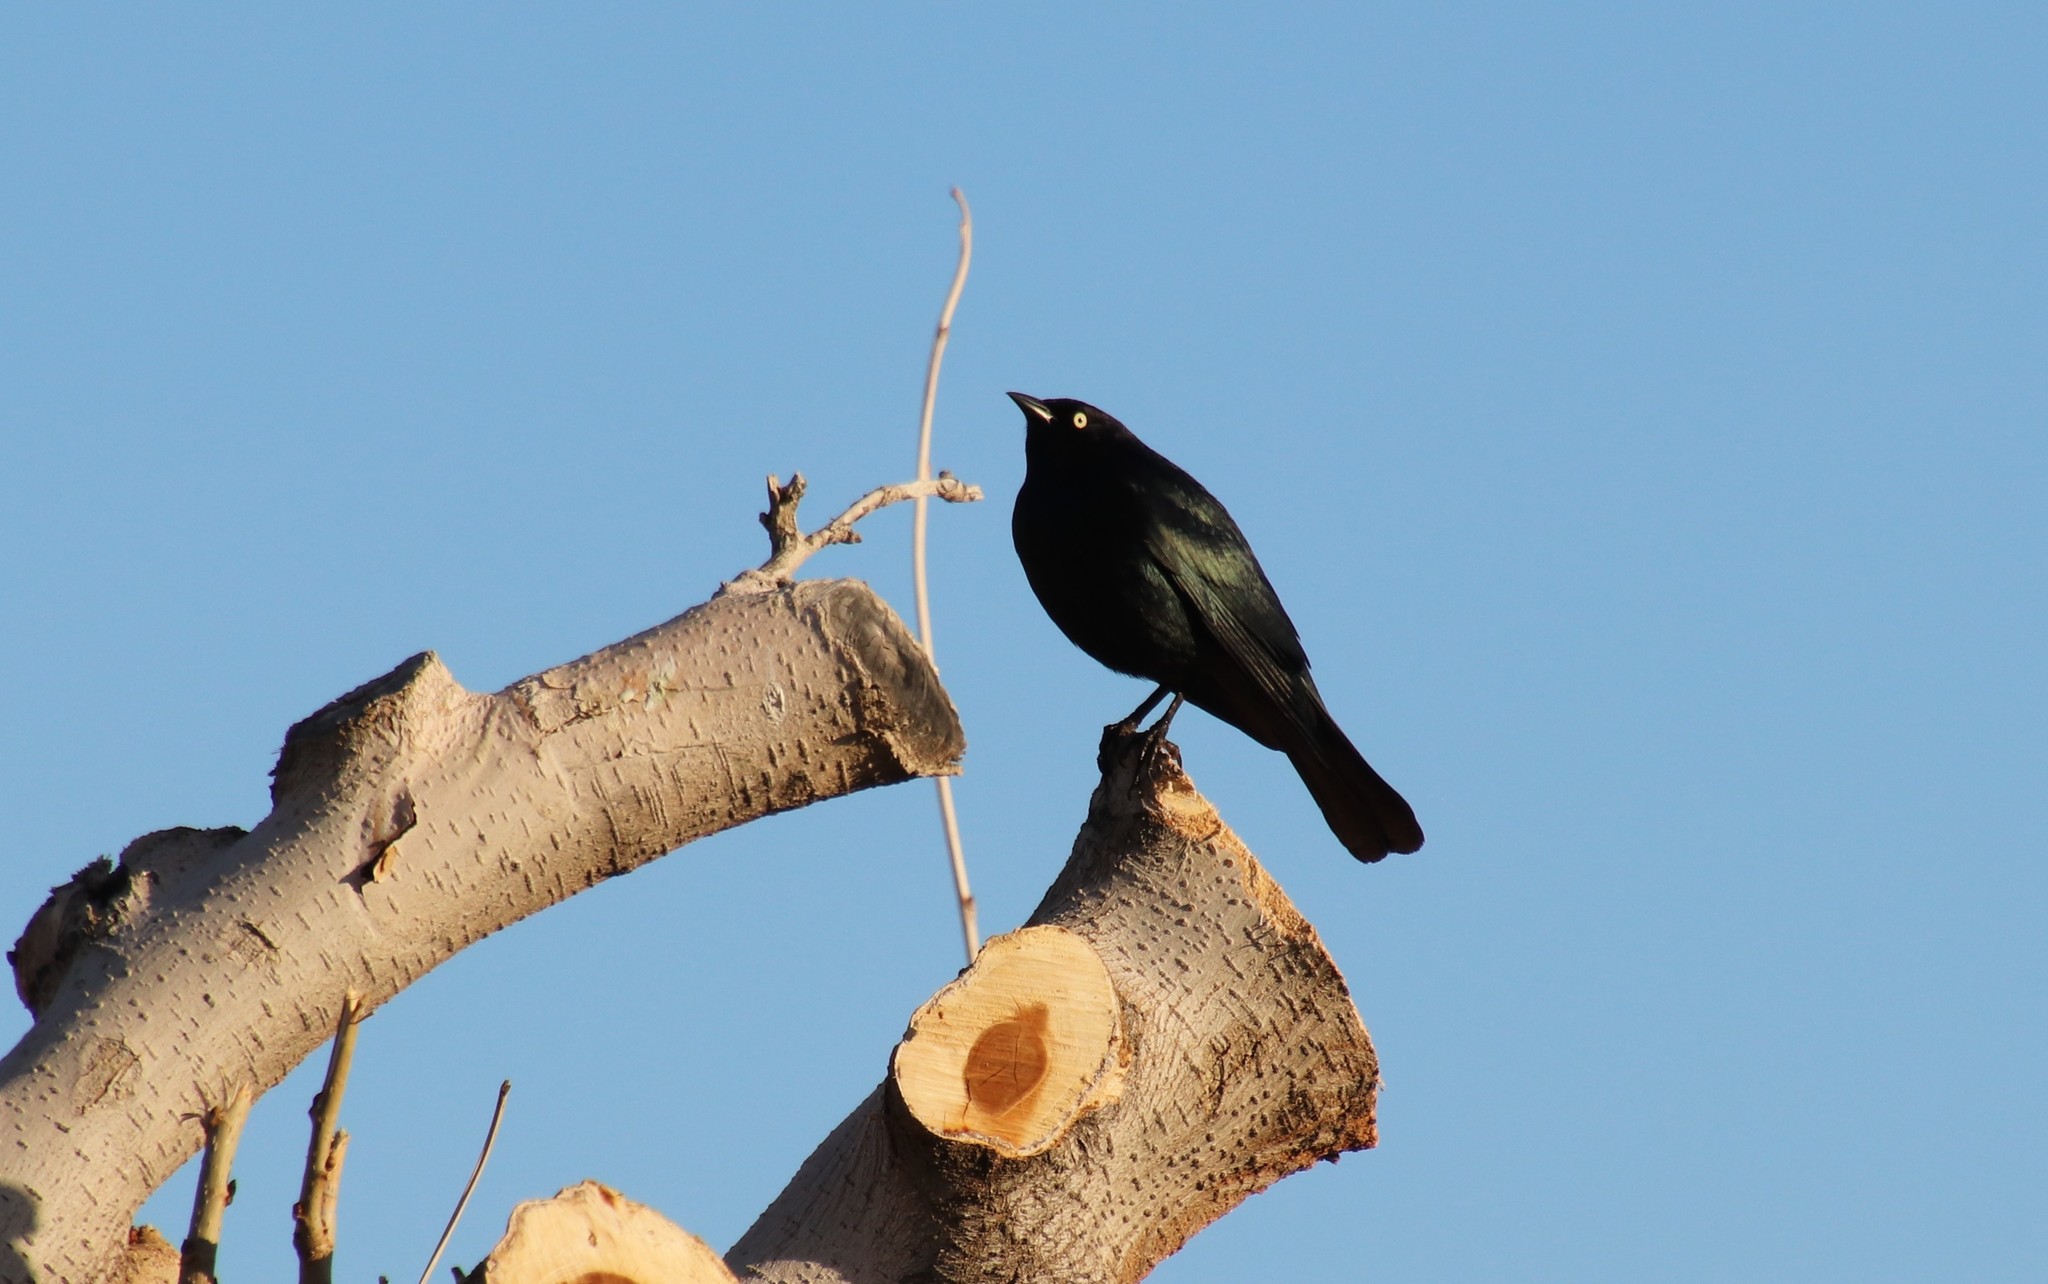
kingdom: Animalia
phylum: Chordata
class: Aves
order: Passeriformes
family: Icteridae
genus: Euphagus
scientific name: Euphagus cyanocephalus
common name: Brewer's blackbird
